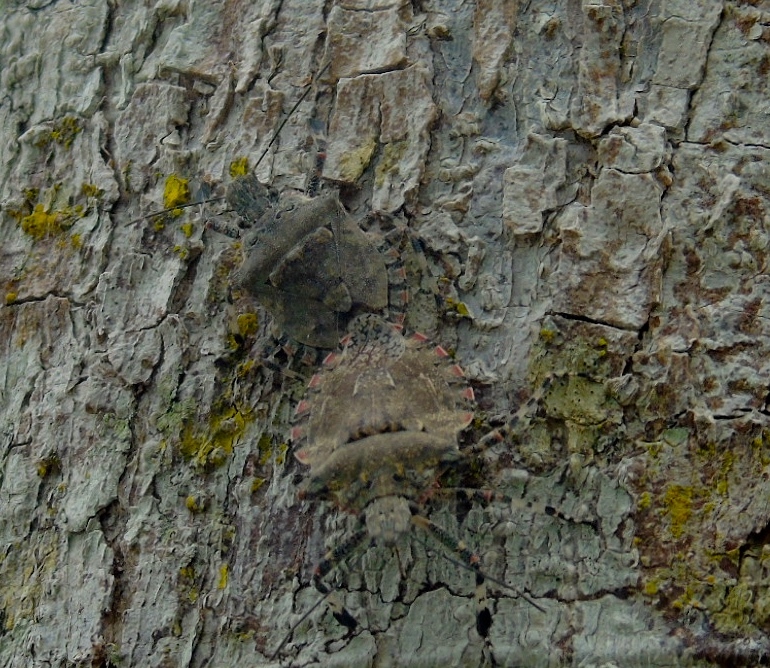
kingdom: Animalia
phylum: Arthropoda
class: Insecta
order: Hemiptera
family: Pentatomidae
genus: Brochymena
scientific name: Brochymena
